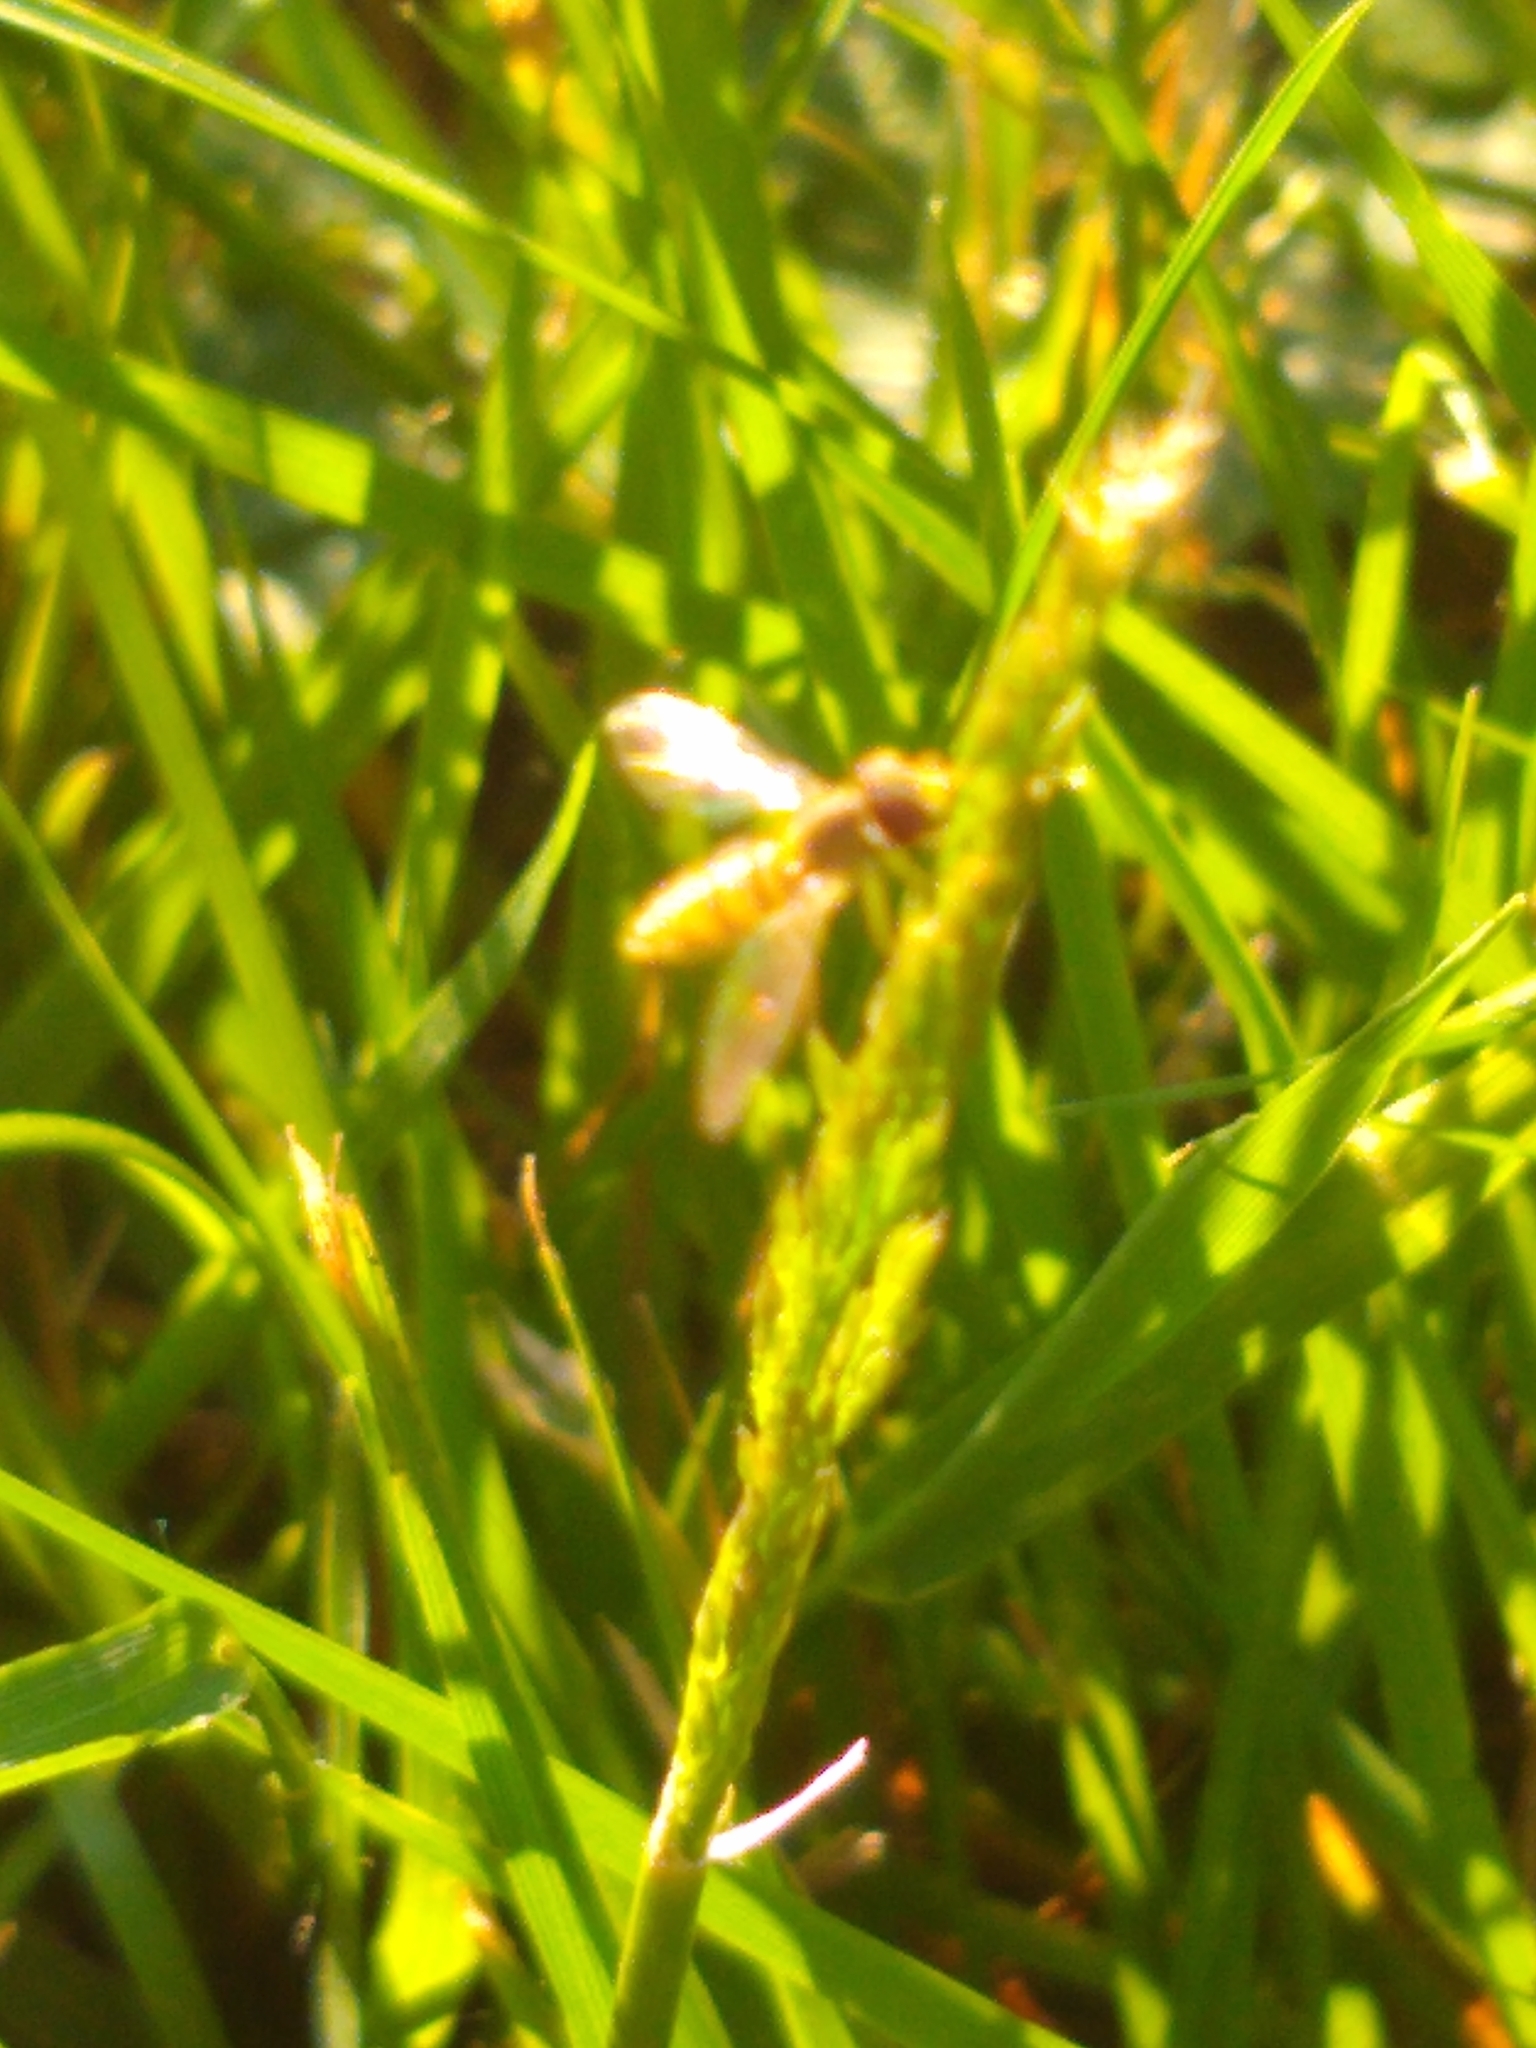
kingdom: Animalia
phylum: Arthropoda
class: Insecta
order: Diptera
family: Syrphidae
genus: Toxomerus
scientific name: Toxomerus marginatus
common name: Syrphid fly
